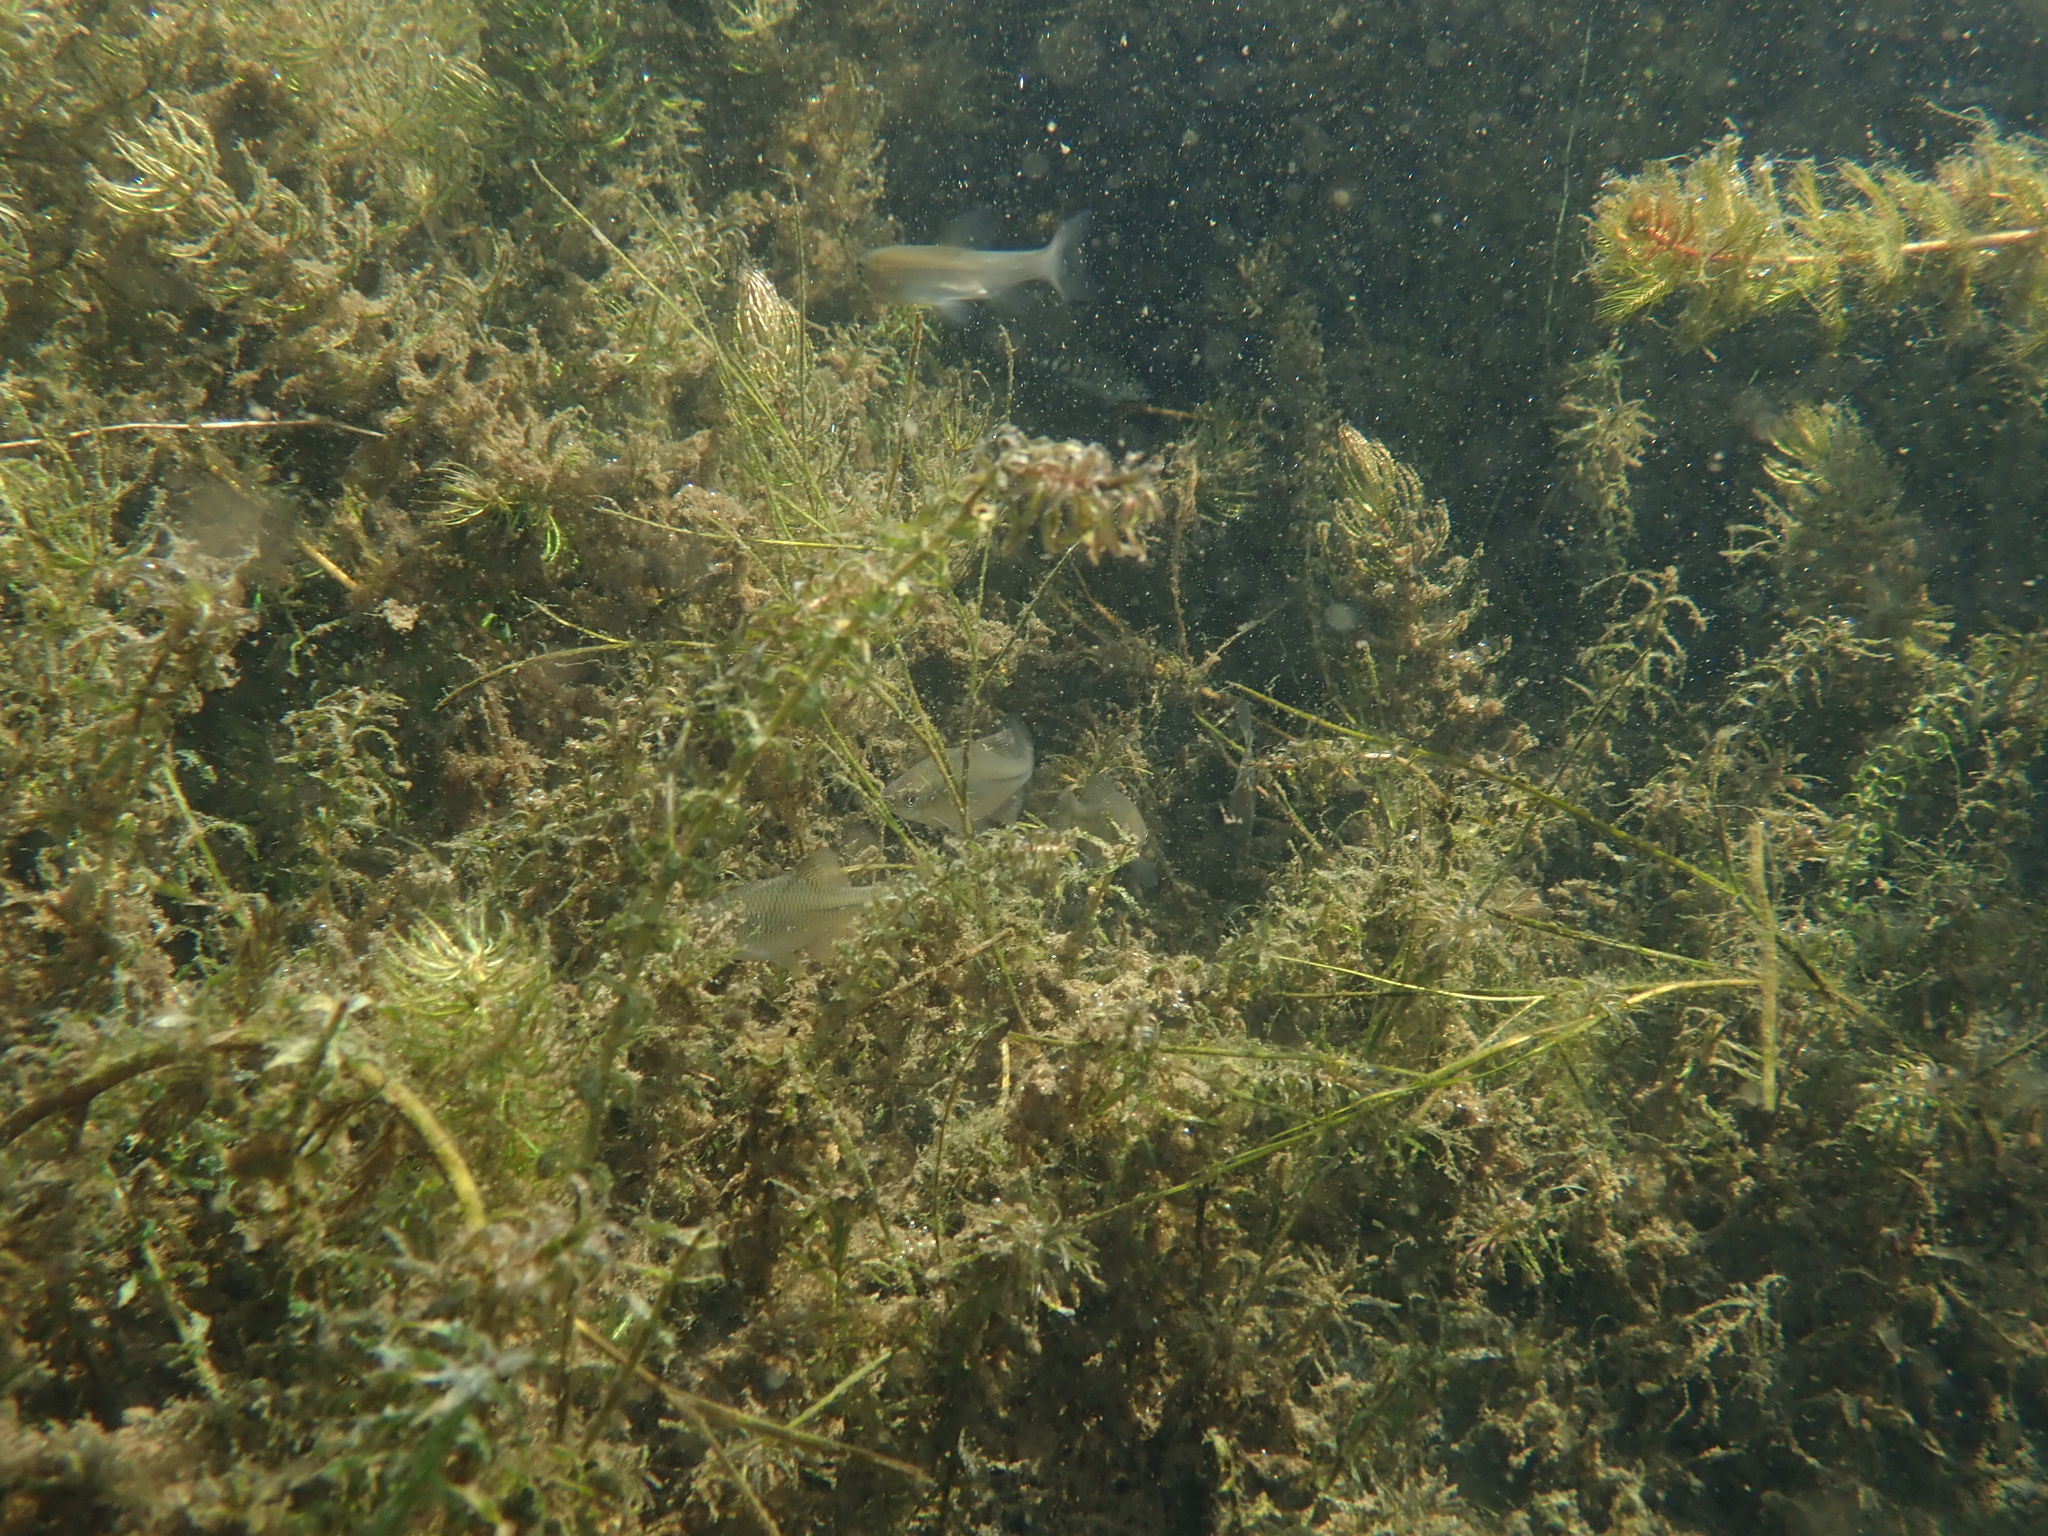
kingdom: Animalia
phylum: Chordata
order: Cypriniformes
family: Cyprinidae
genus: Rhodeus
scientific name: Rhodeus amarus
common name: Bitterling
